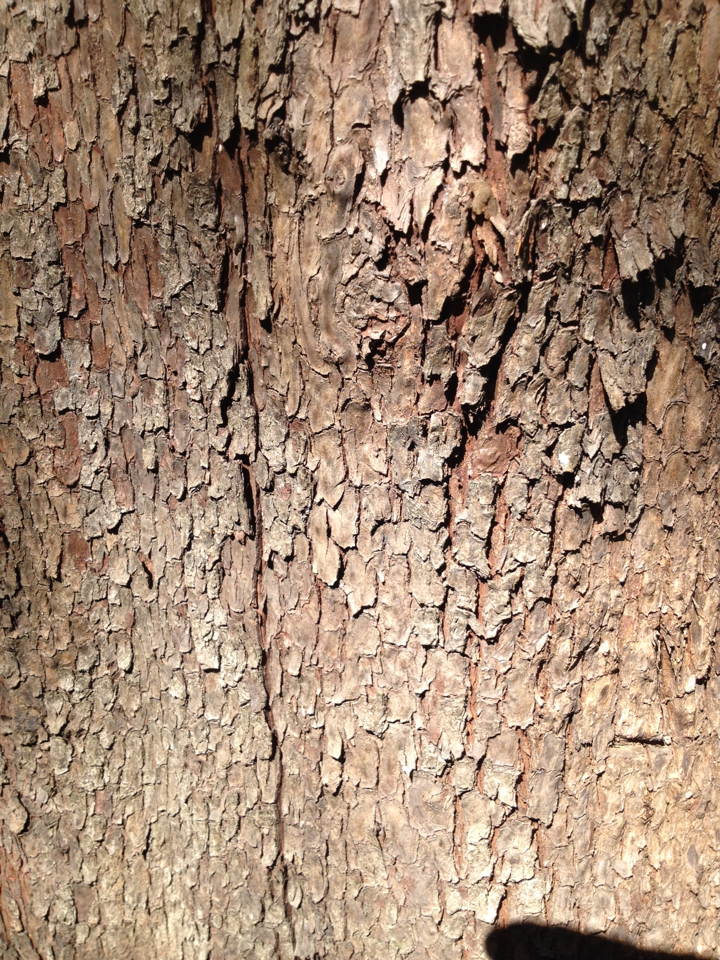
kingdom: Plantae
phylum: Tracheophyta
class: Magnoliopsida
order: Ericales
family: Ericaceae
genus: Arbutus
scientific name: Arbutus menziesii
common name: Pacific madrone
